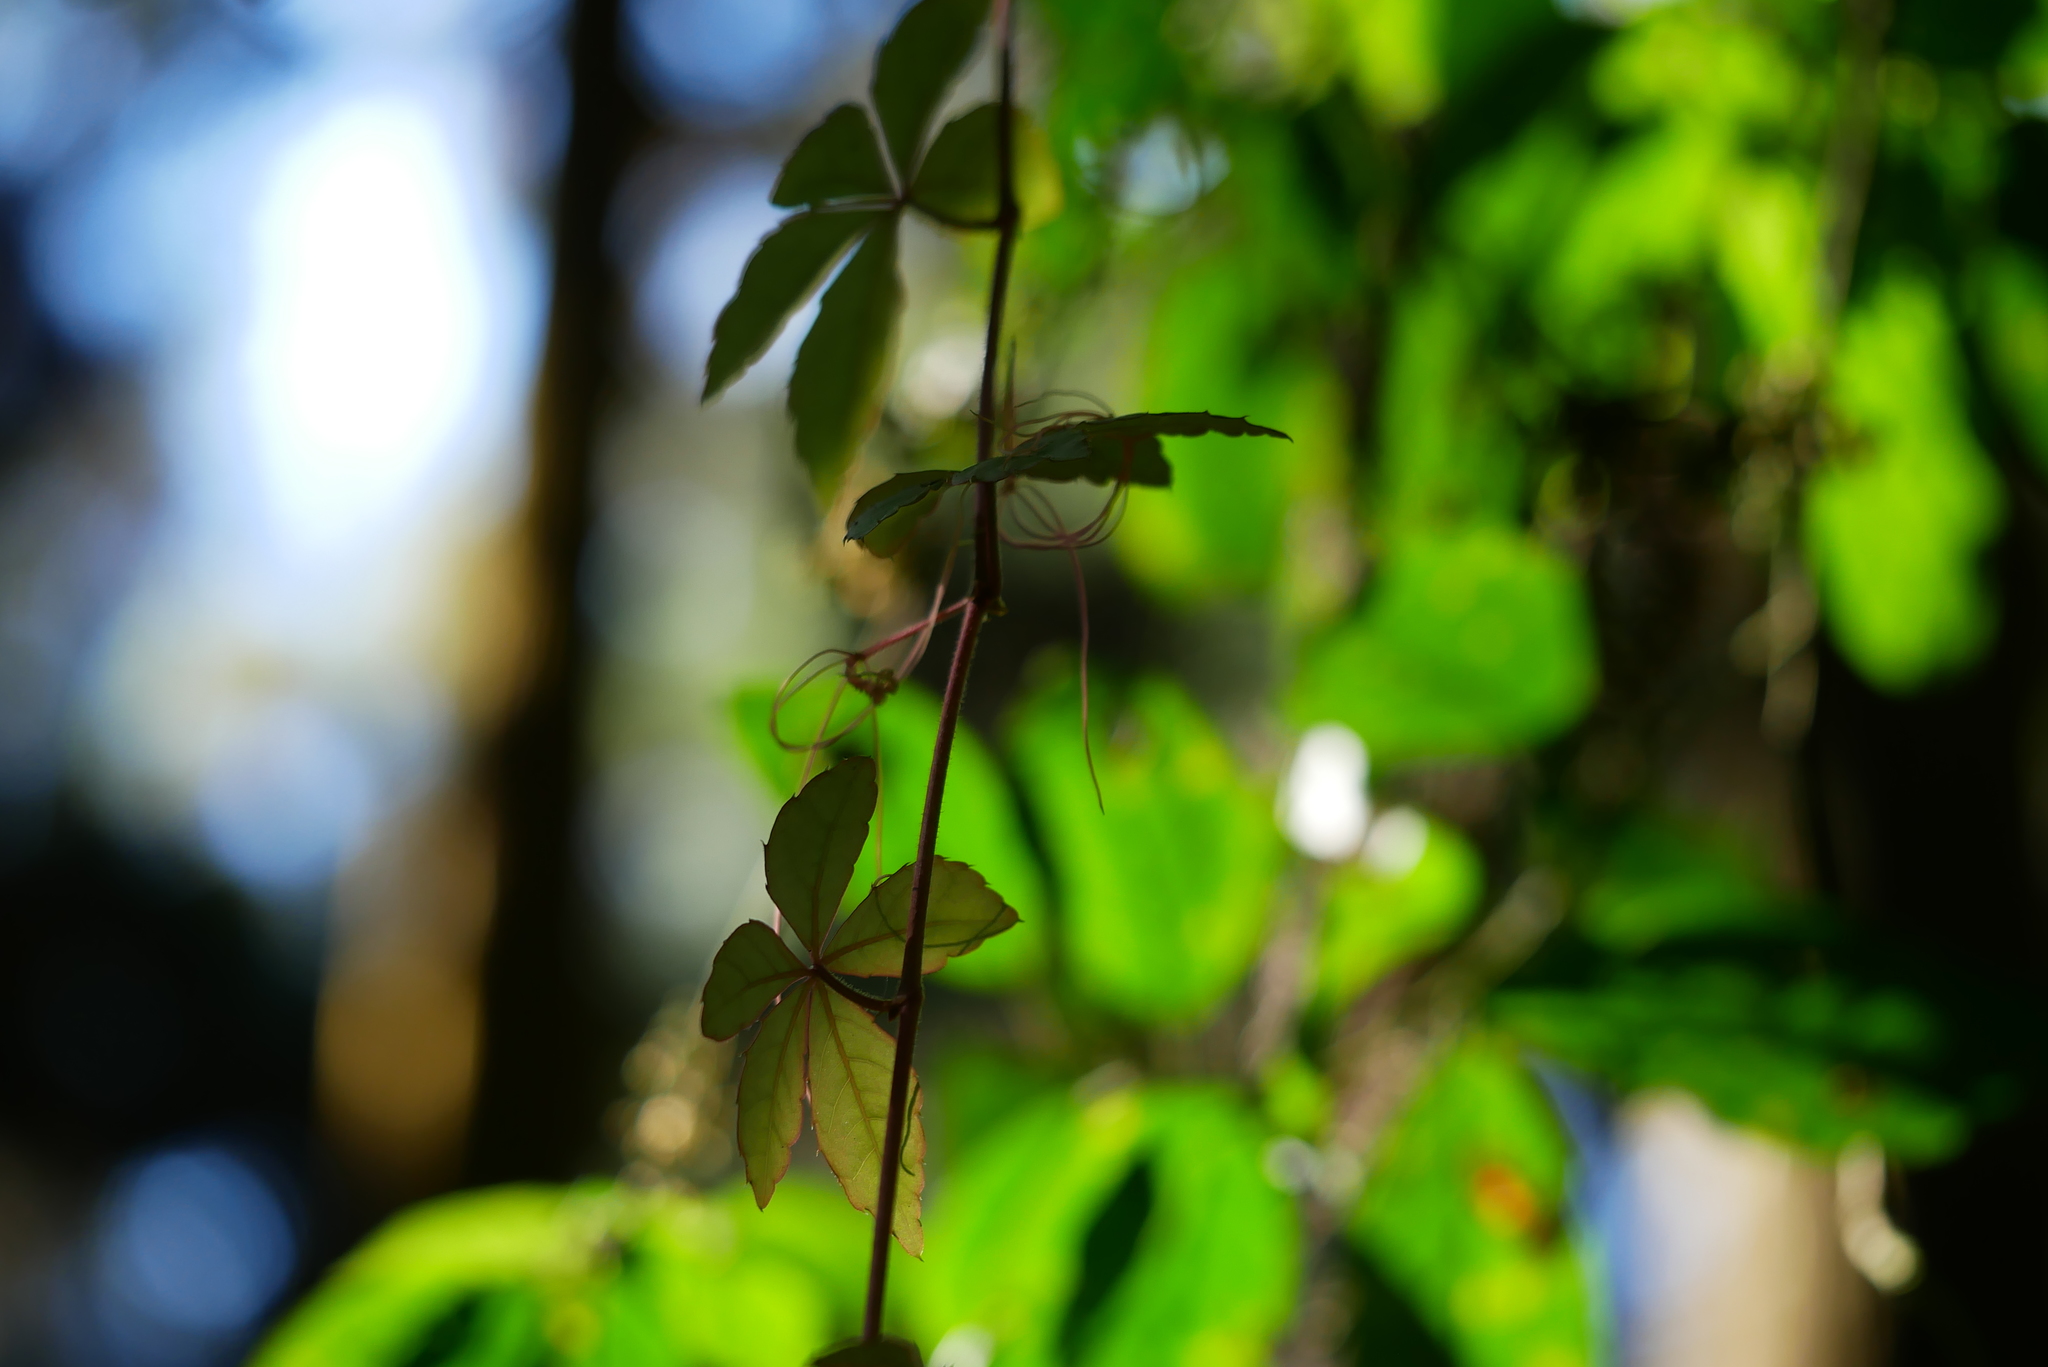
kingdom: Plantae
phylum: Tracheophyta
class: Magnoliopsida
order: Vitales
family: Vitaceae
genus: Tetrastigma
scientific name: Tetrastigma obtectum
